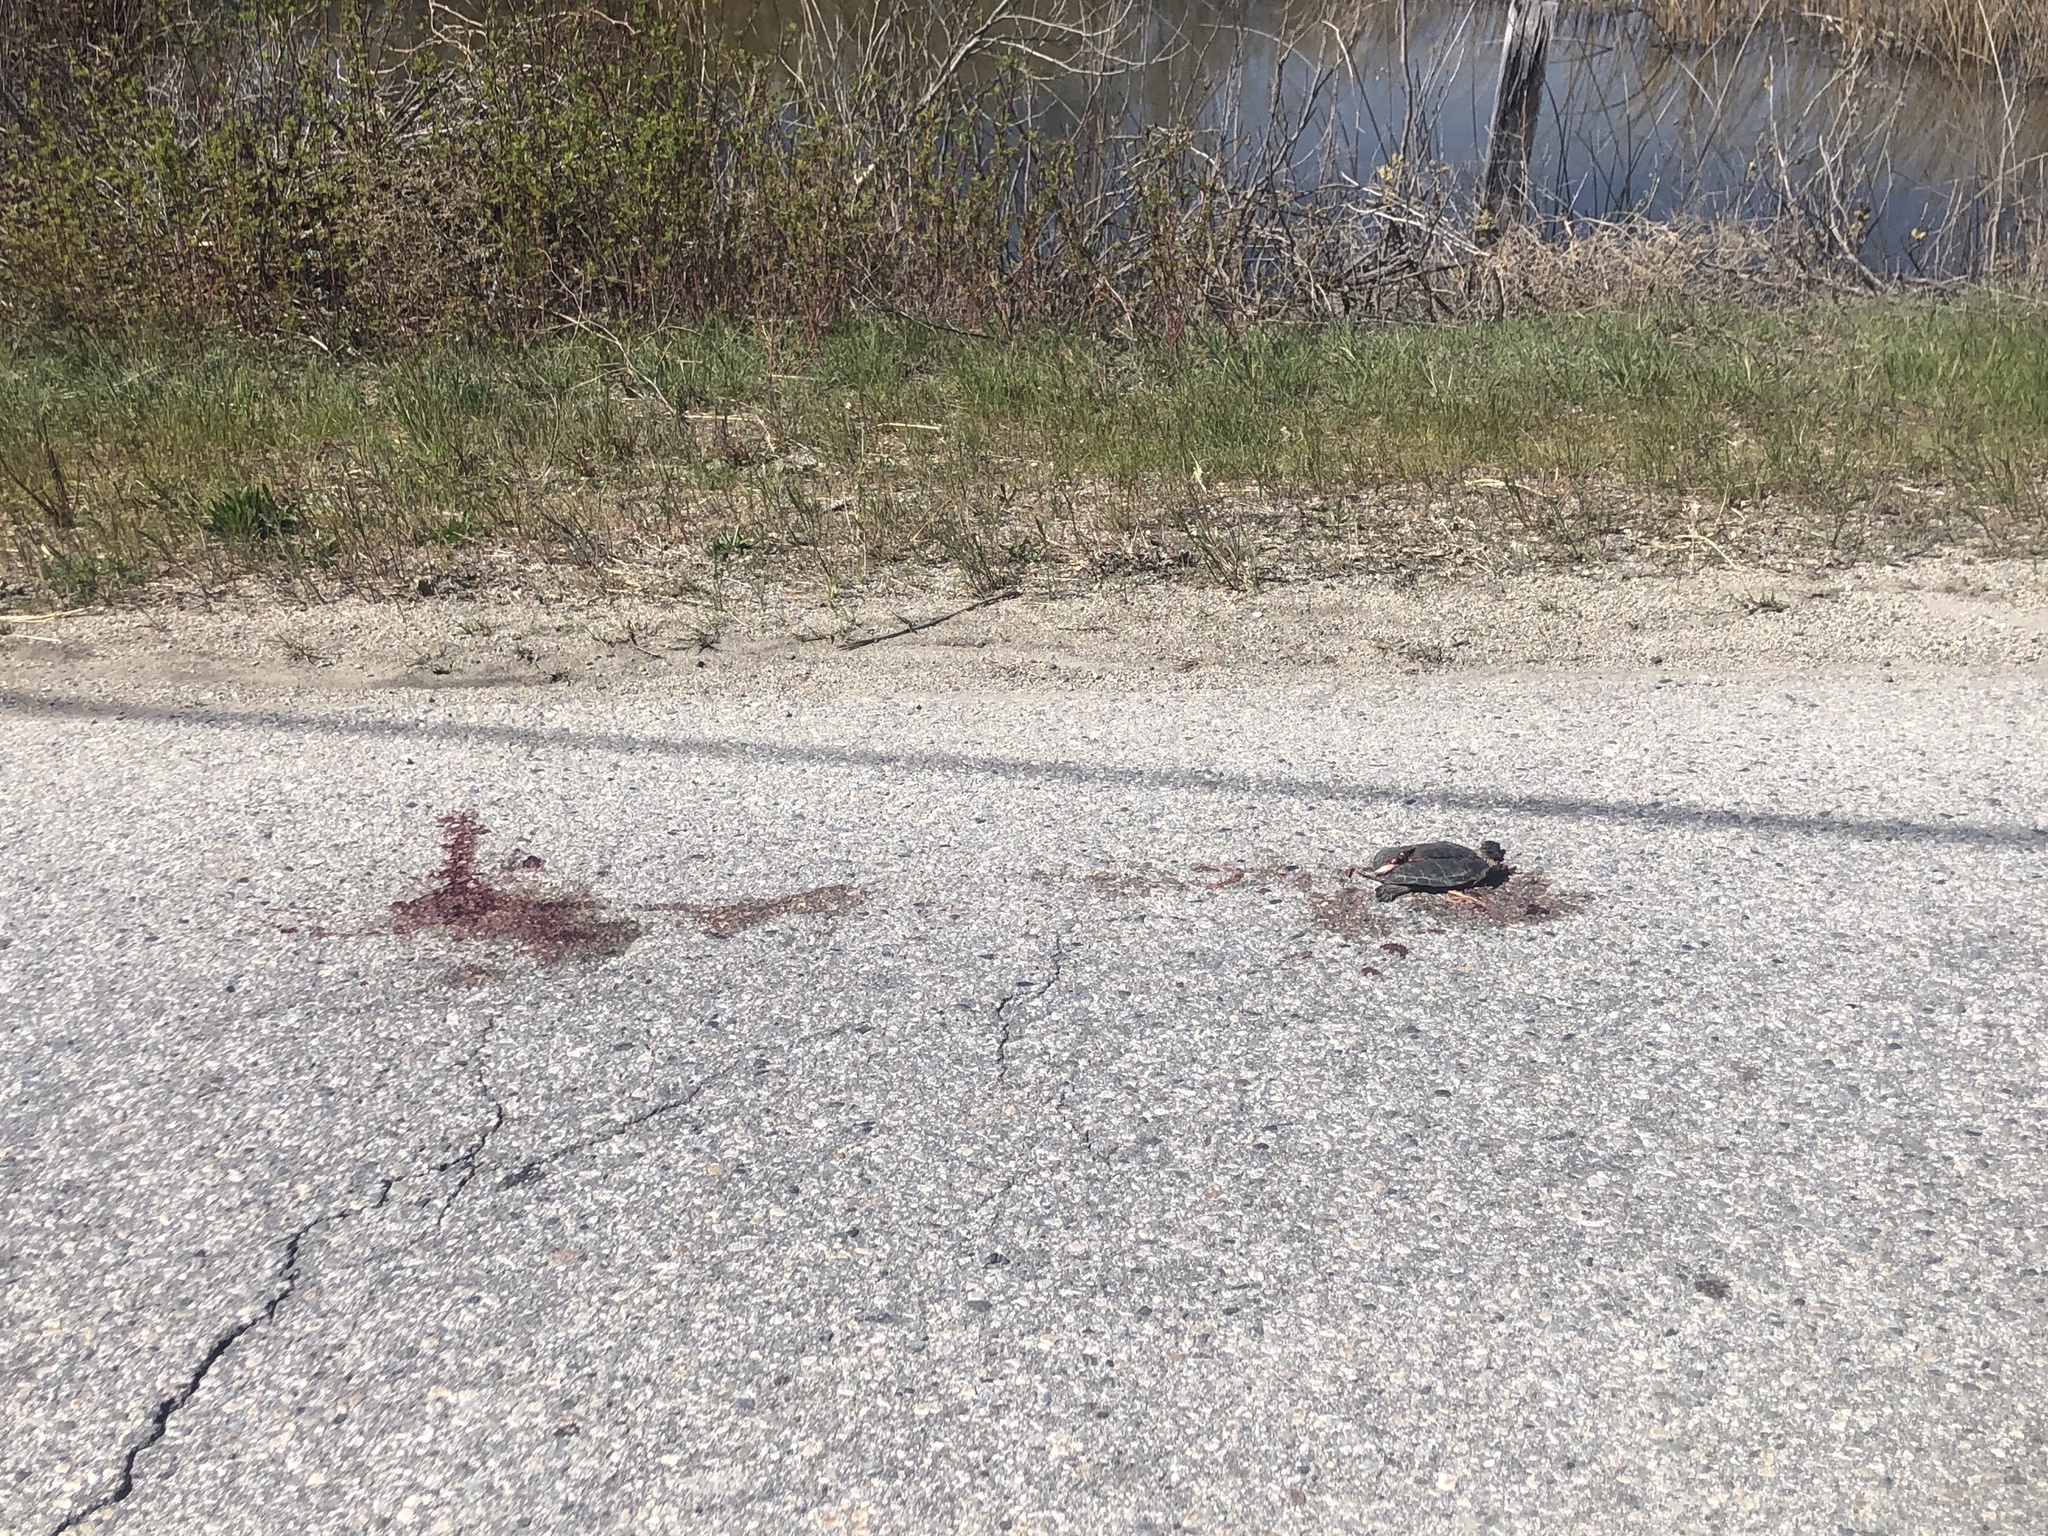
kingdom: Animalia
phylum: Chordata
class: Testudines
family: Emydidae
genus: Chrysemys
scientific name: Chrysemys picta
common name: Painted turtle
